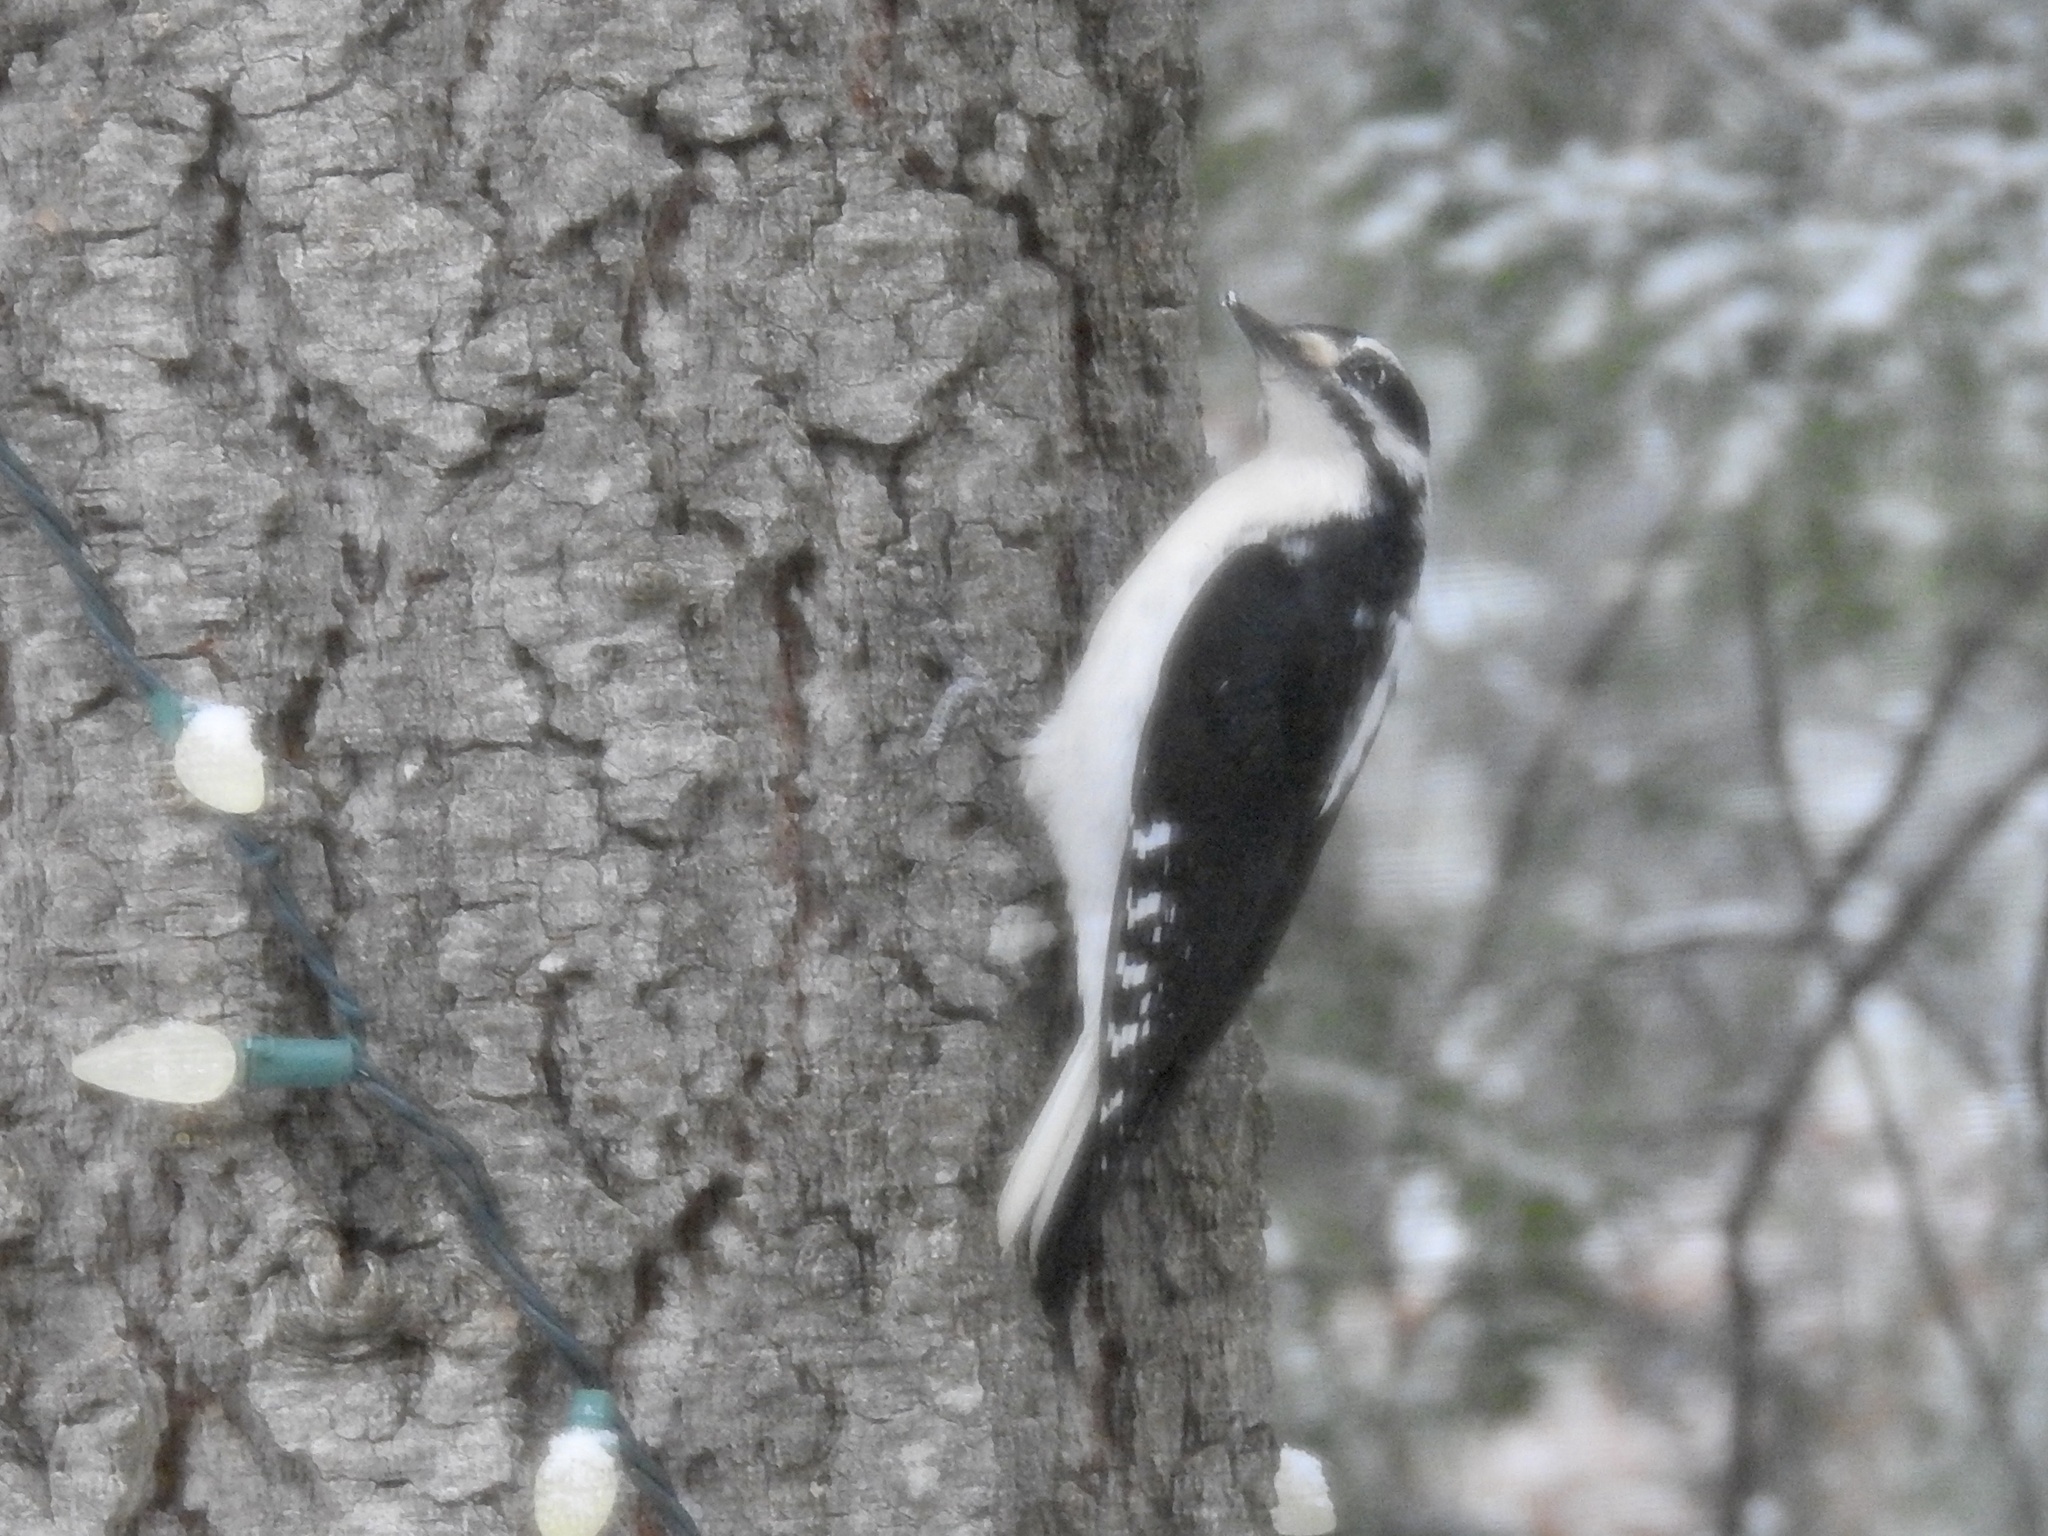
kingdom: Animalia
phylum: Chordata
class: Aves
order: Piciformes
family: Picidae
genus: Leuconotopicus
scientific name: Leuconotopicus villosus
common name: Hairy woodpecker
